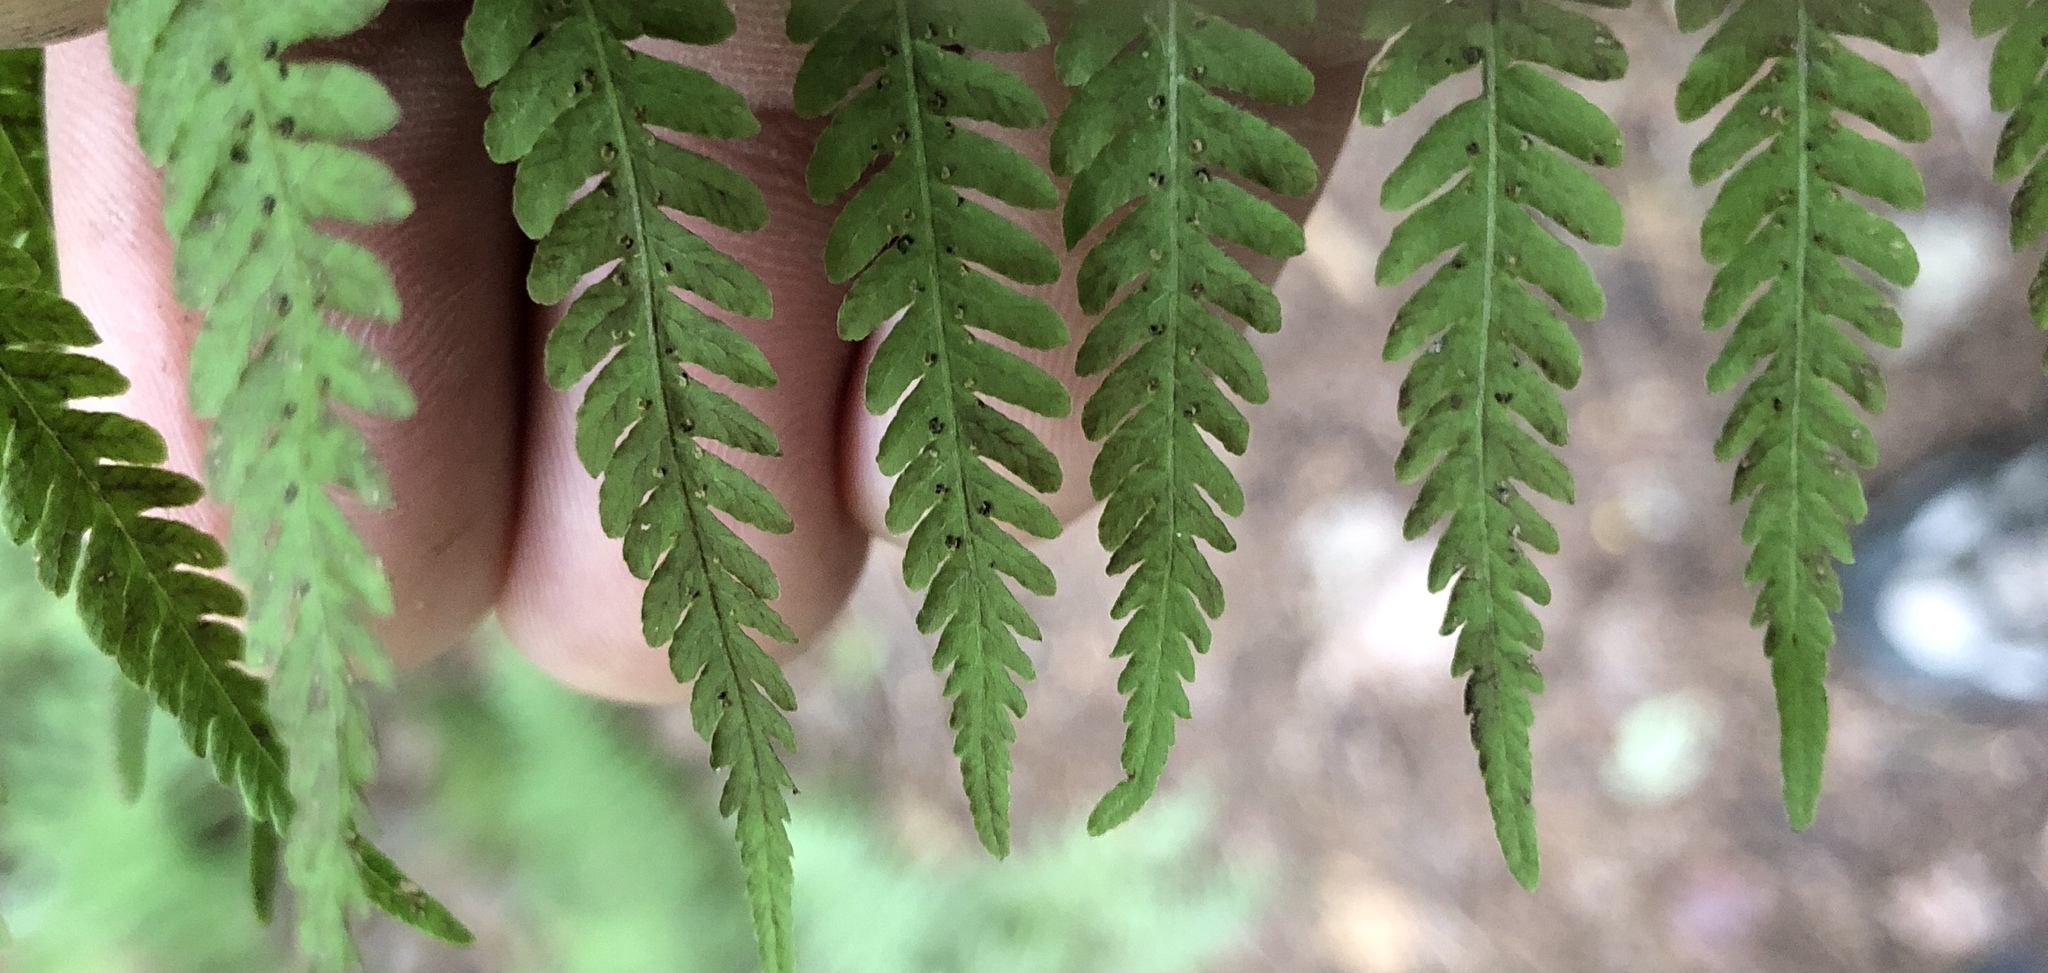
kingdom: Plantae
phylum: Tracheophyta
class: Polypodiopsida
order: Polypodiales
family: Thelypteridaceae
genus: Amauropelta
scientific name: Amauropelta noveboracensis
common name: New york fern
